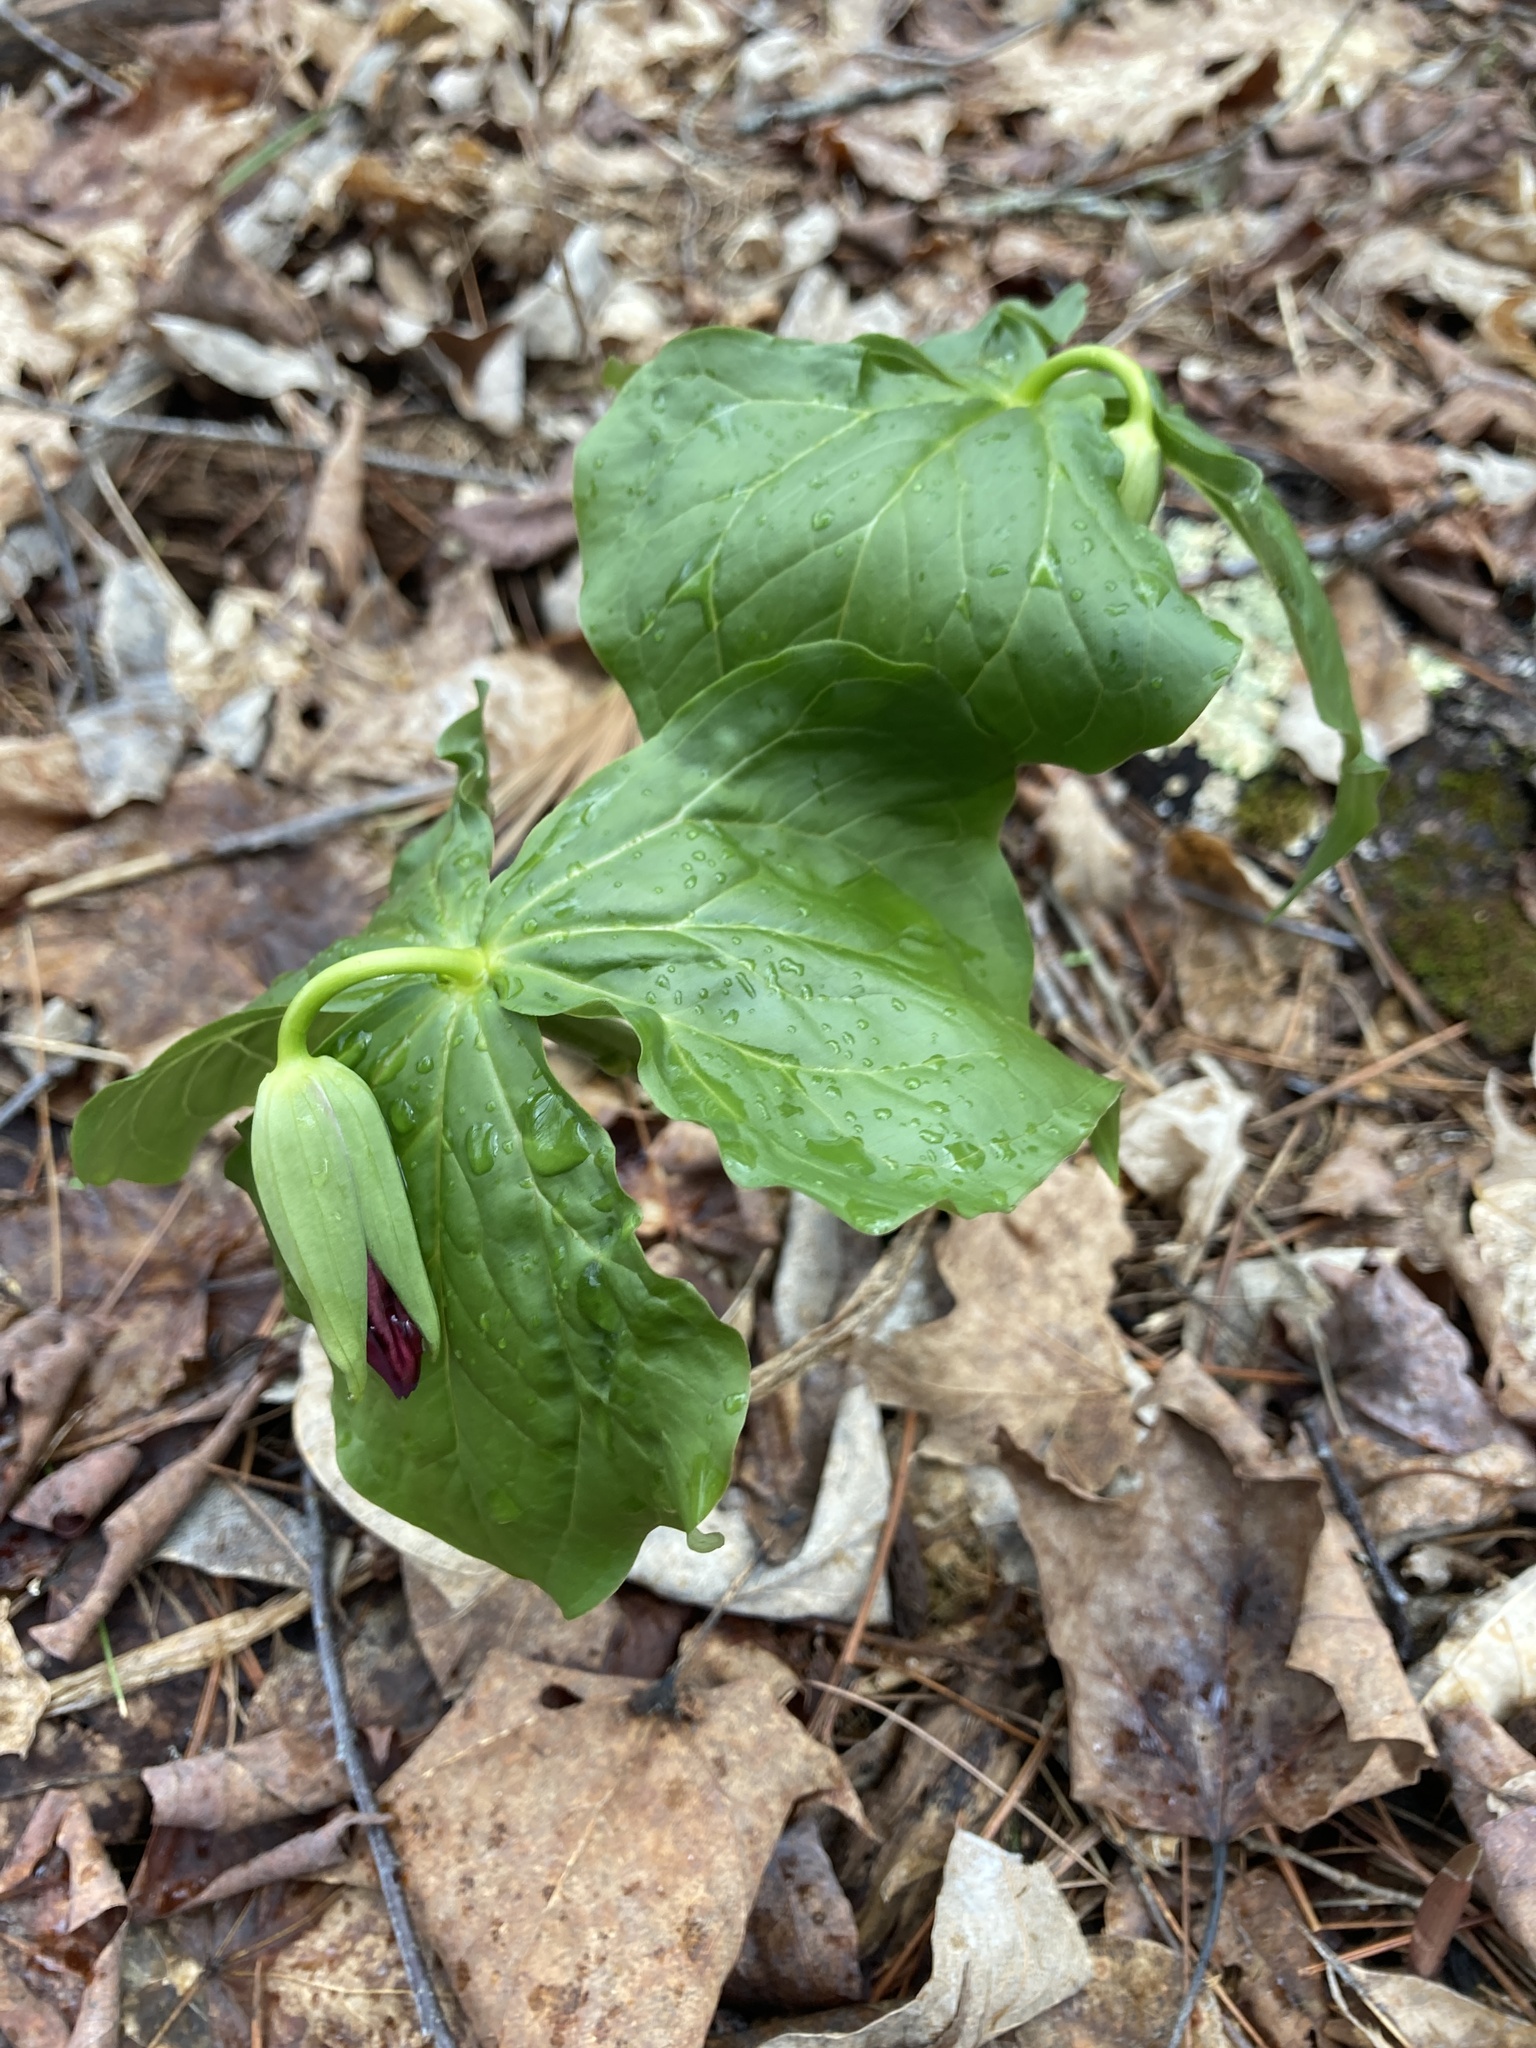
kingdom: Plantae
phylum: Tracheophyta
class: Liliopsida
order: Liliales
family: Melanthiaceae
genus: Trillium
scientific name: Trillium erectum
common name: Purple trillium
